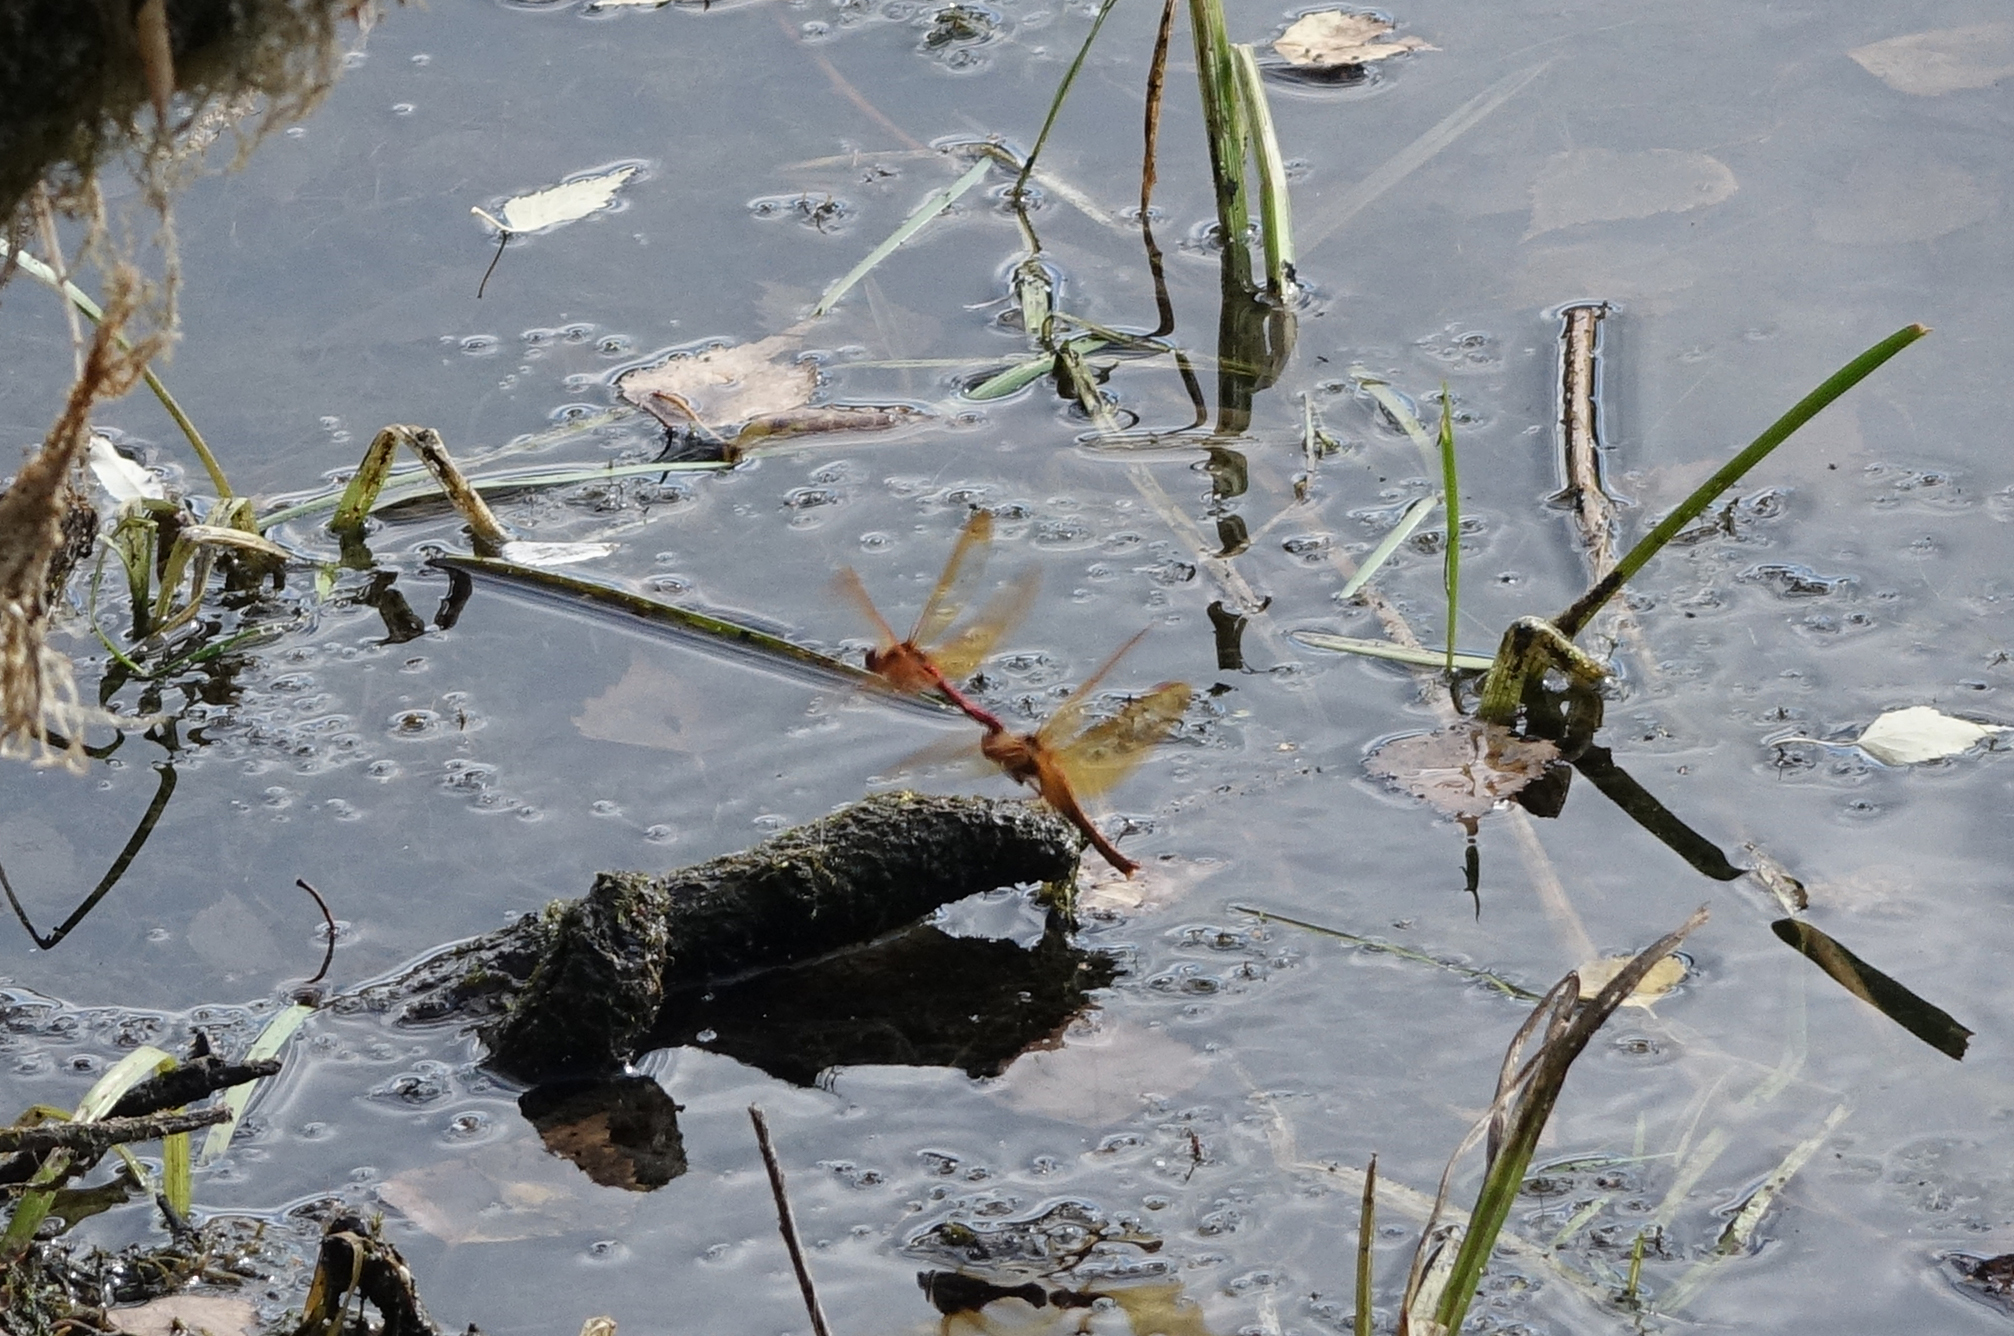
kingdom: Animalia
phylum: Arthropoda
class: Insecta
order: Odonata
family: Libellulidae
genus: Sympetrum
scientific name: Sympetrum croceolum
